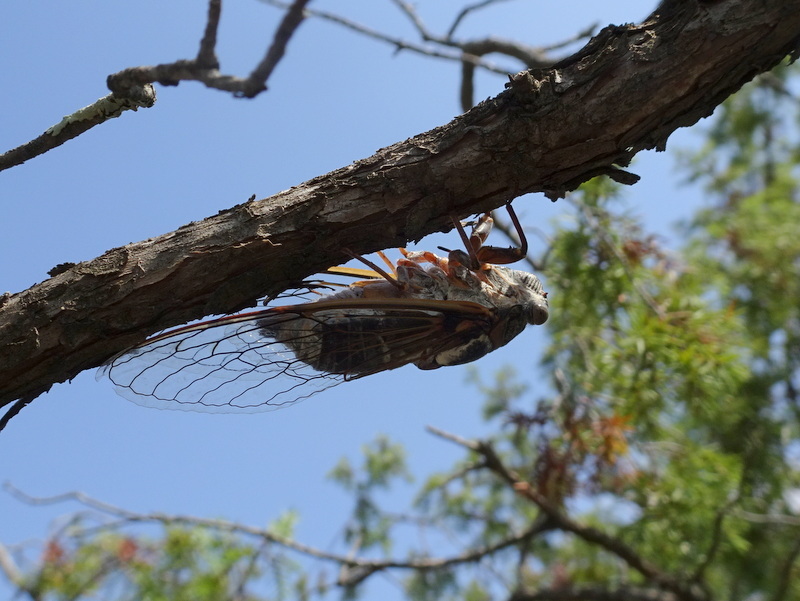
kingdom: Animalia
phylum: Arthropoda
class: Insecta
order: Hemiptera
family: Cicadidae
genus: Lyristes
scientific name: Lyristes plebejus
